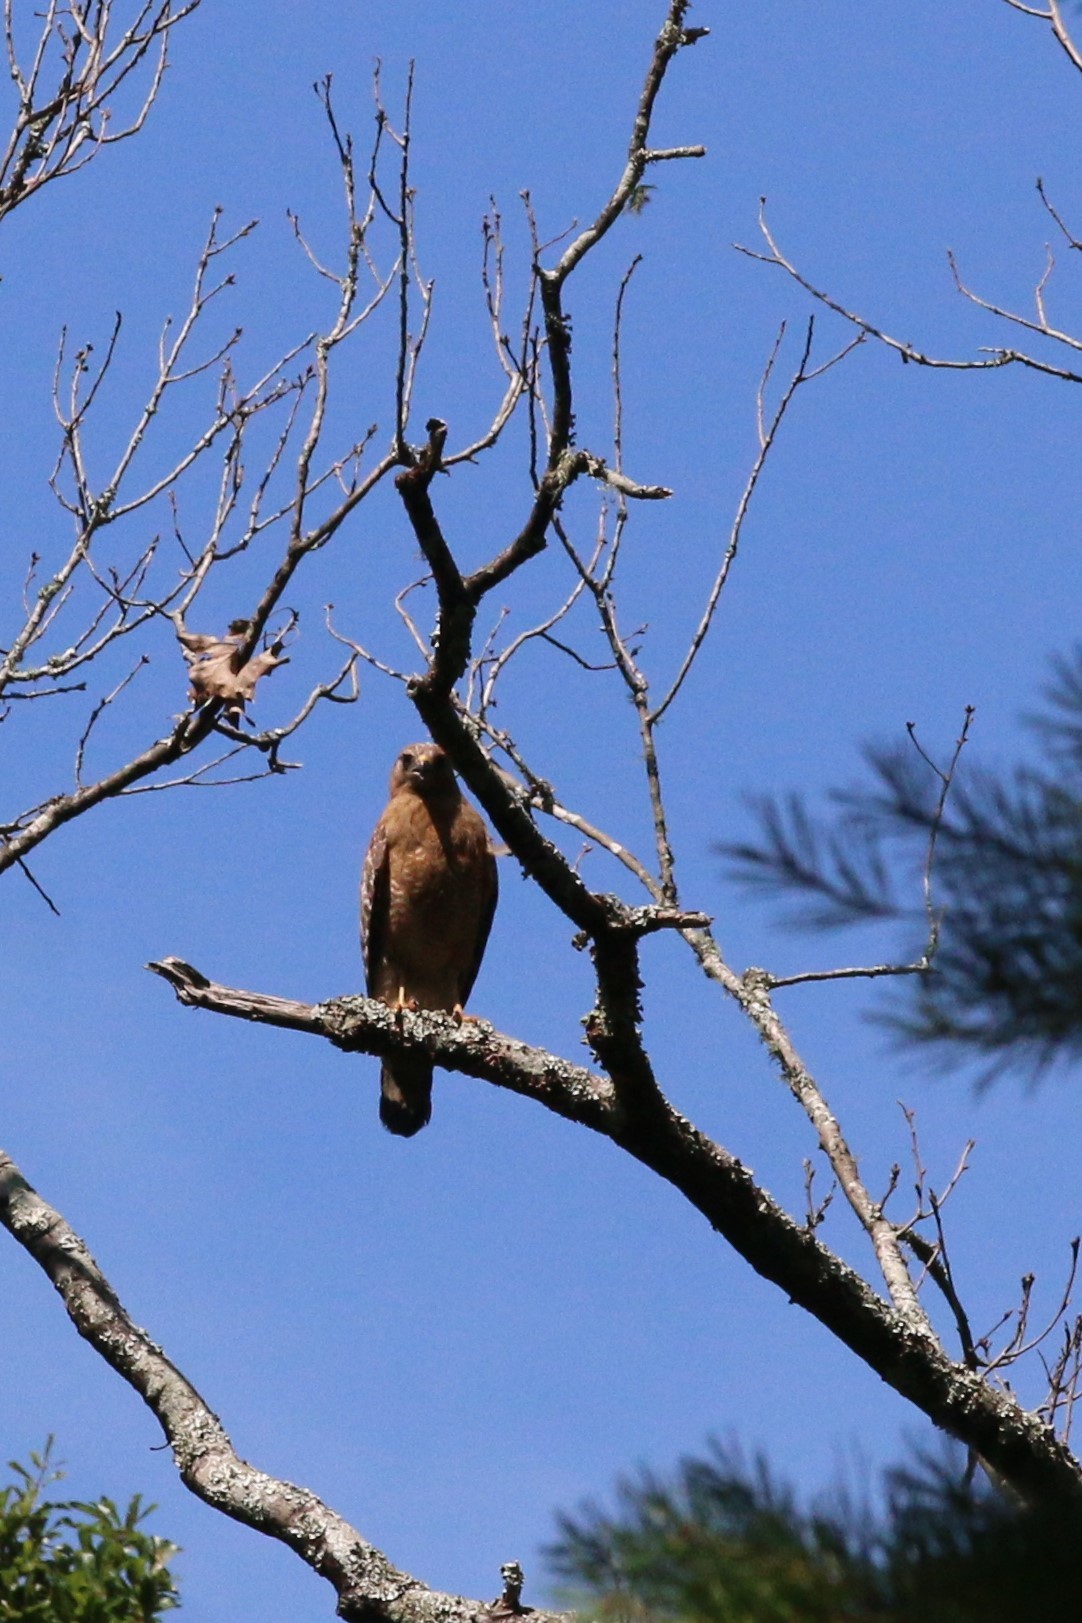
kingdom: Animalia
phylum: Chordata
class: Aves
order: Accipitriformes
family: Accipitridae
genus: Buteo
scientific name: Buteo lineatus
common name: Red-shouldered hawk
